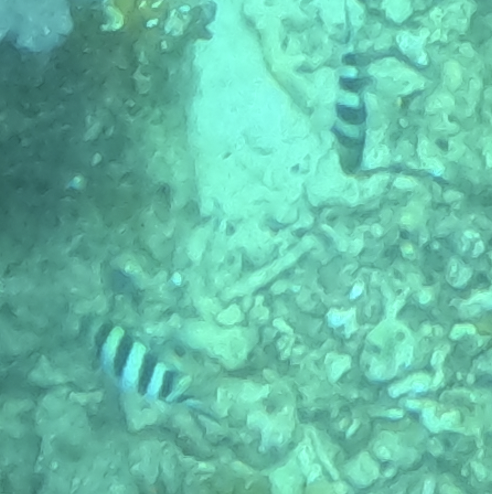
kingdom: Animalia
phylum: Chordata
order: Perciformes
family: Pomacentridae
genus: Abudefduf
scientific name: Abudefduf sexfasciatus
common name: Scissortail sergeant
